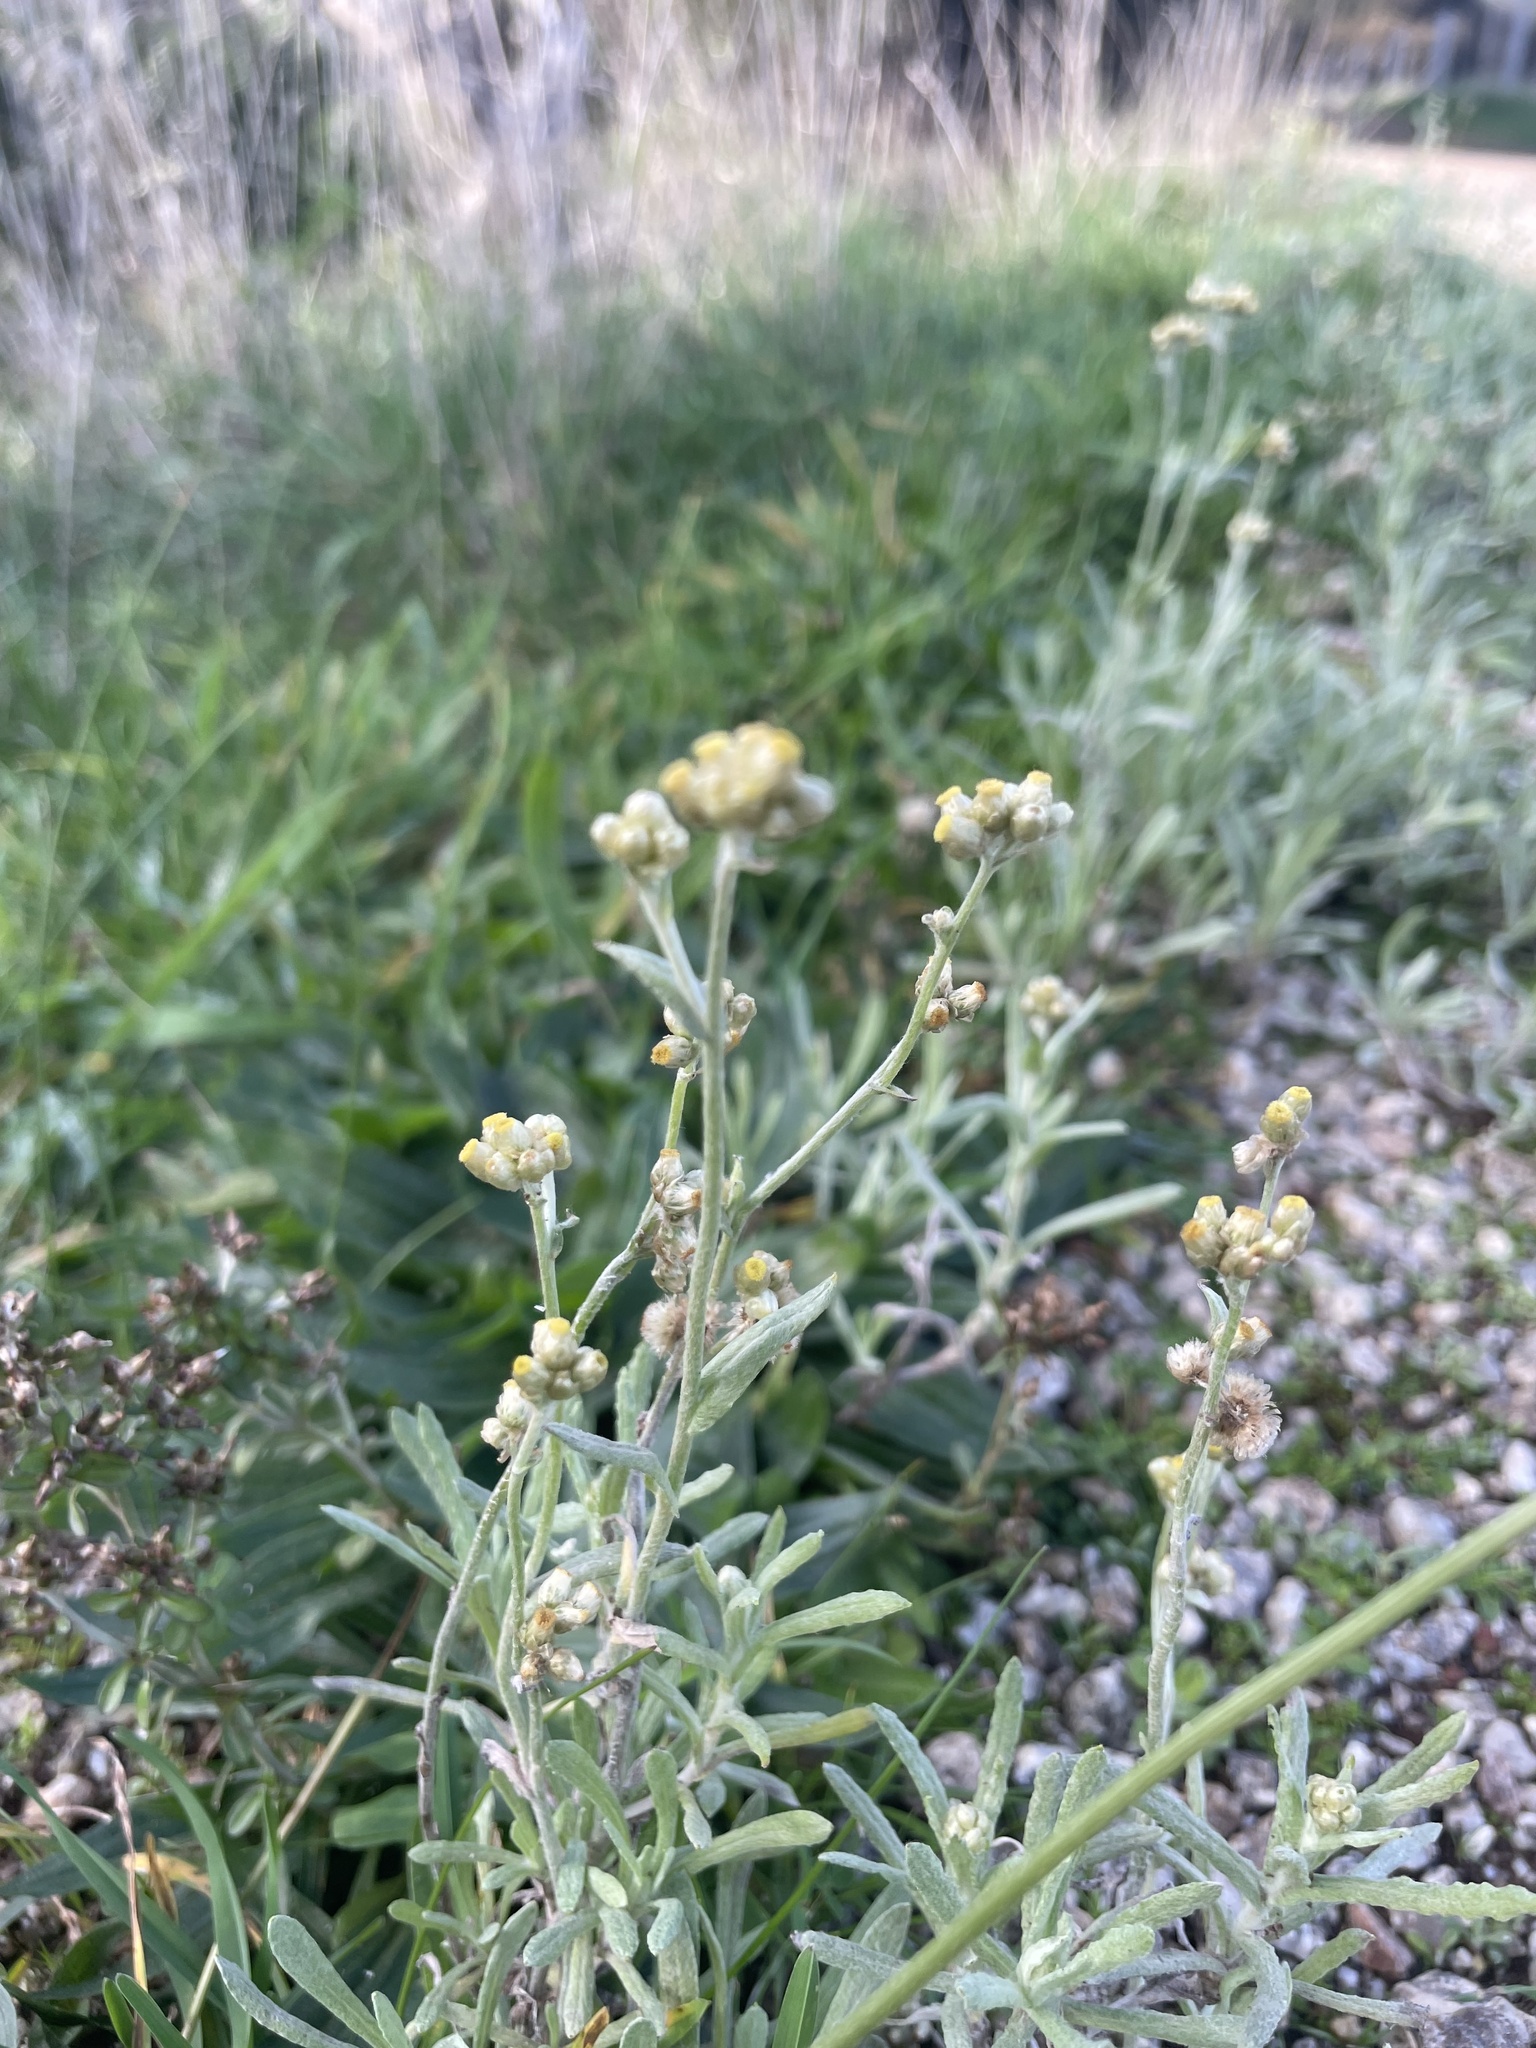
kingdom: Plantae
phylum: Tracheophyta
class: Magnoliopsida
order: Asterales
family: Asteraceae
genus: Helichrysum
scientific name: Helichrysum luteoalbum
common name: Daisy
